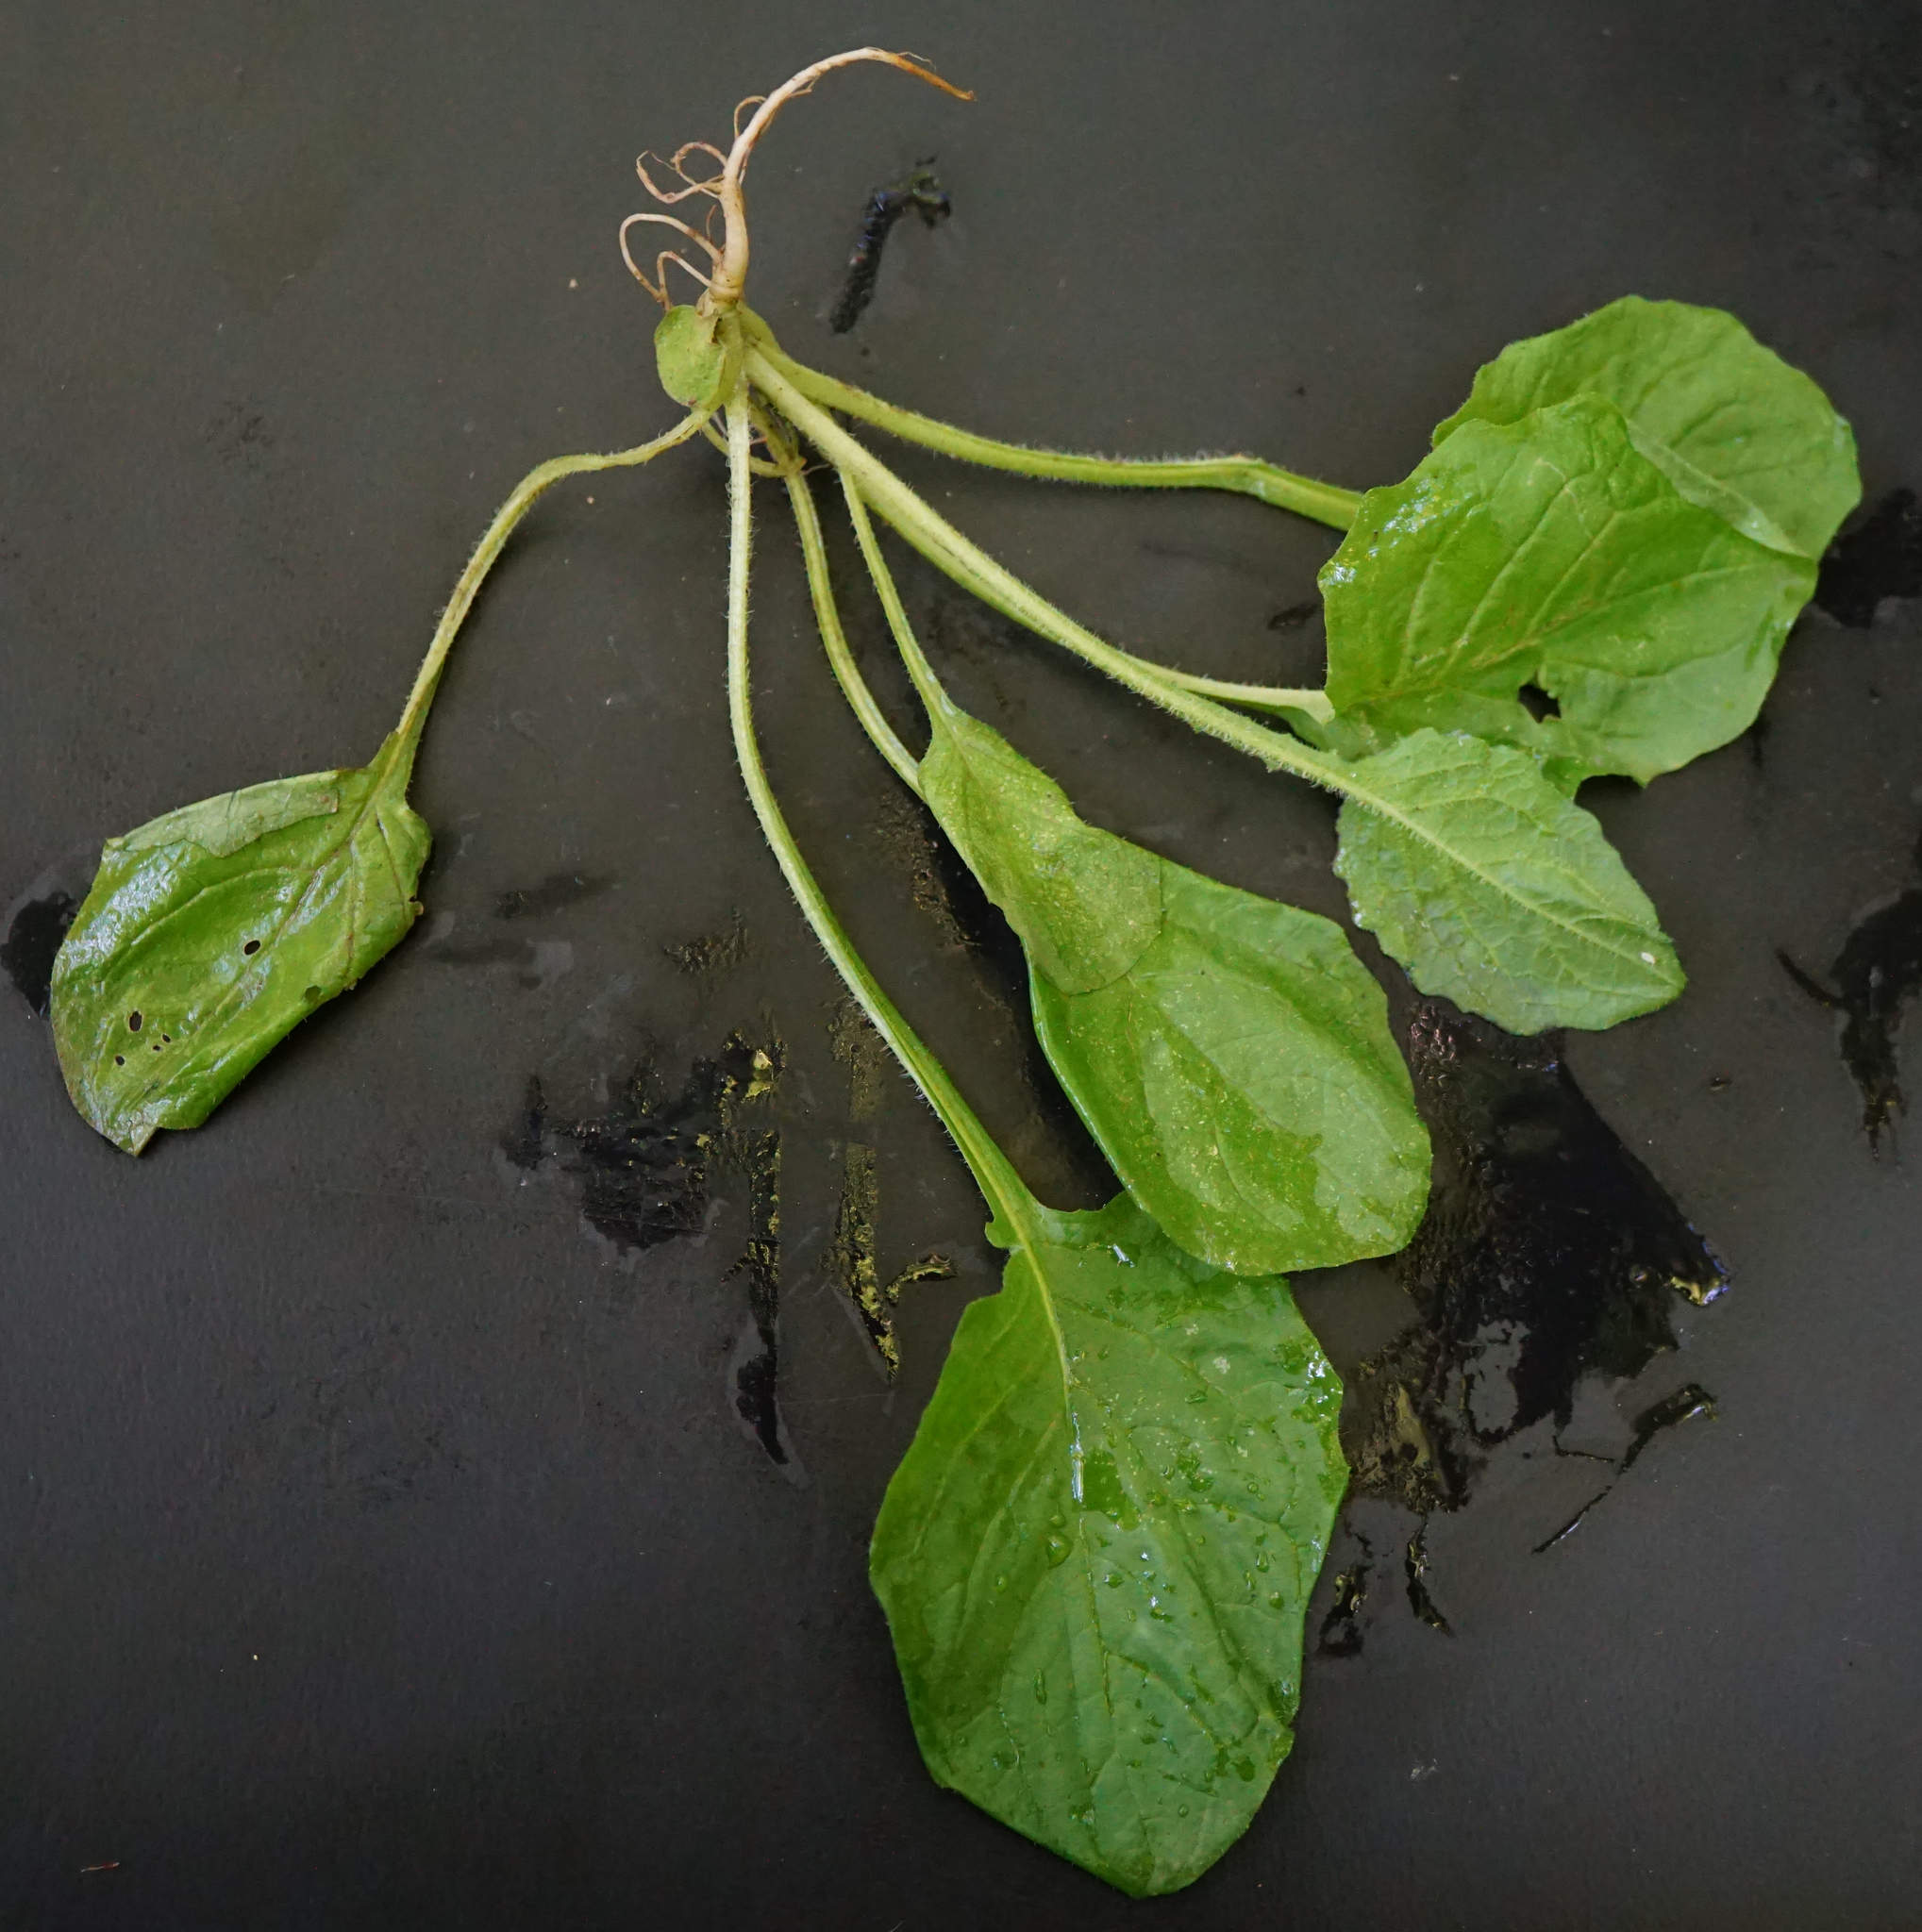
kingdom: Plantae
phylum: Tracheophyta
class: Magnoliopsida
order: Asterales
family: Asteraceae
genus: Lapsana
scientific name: Lapsana communis
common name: Nipplewort
